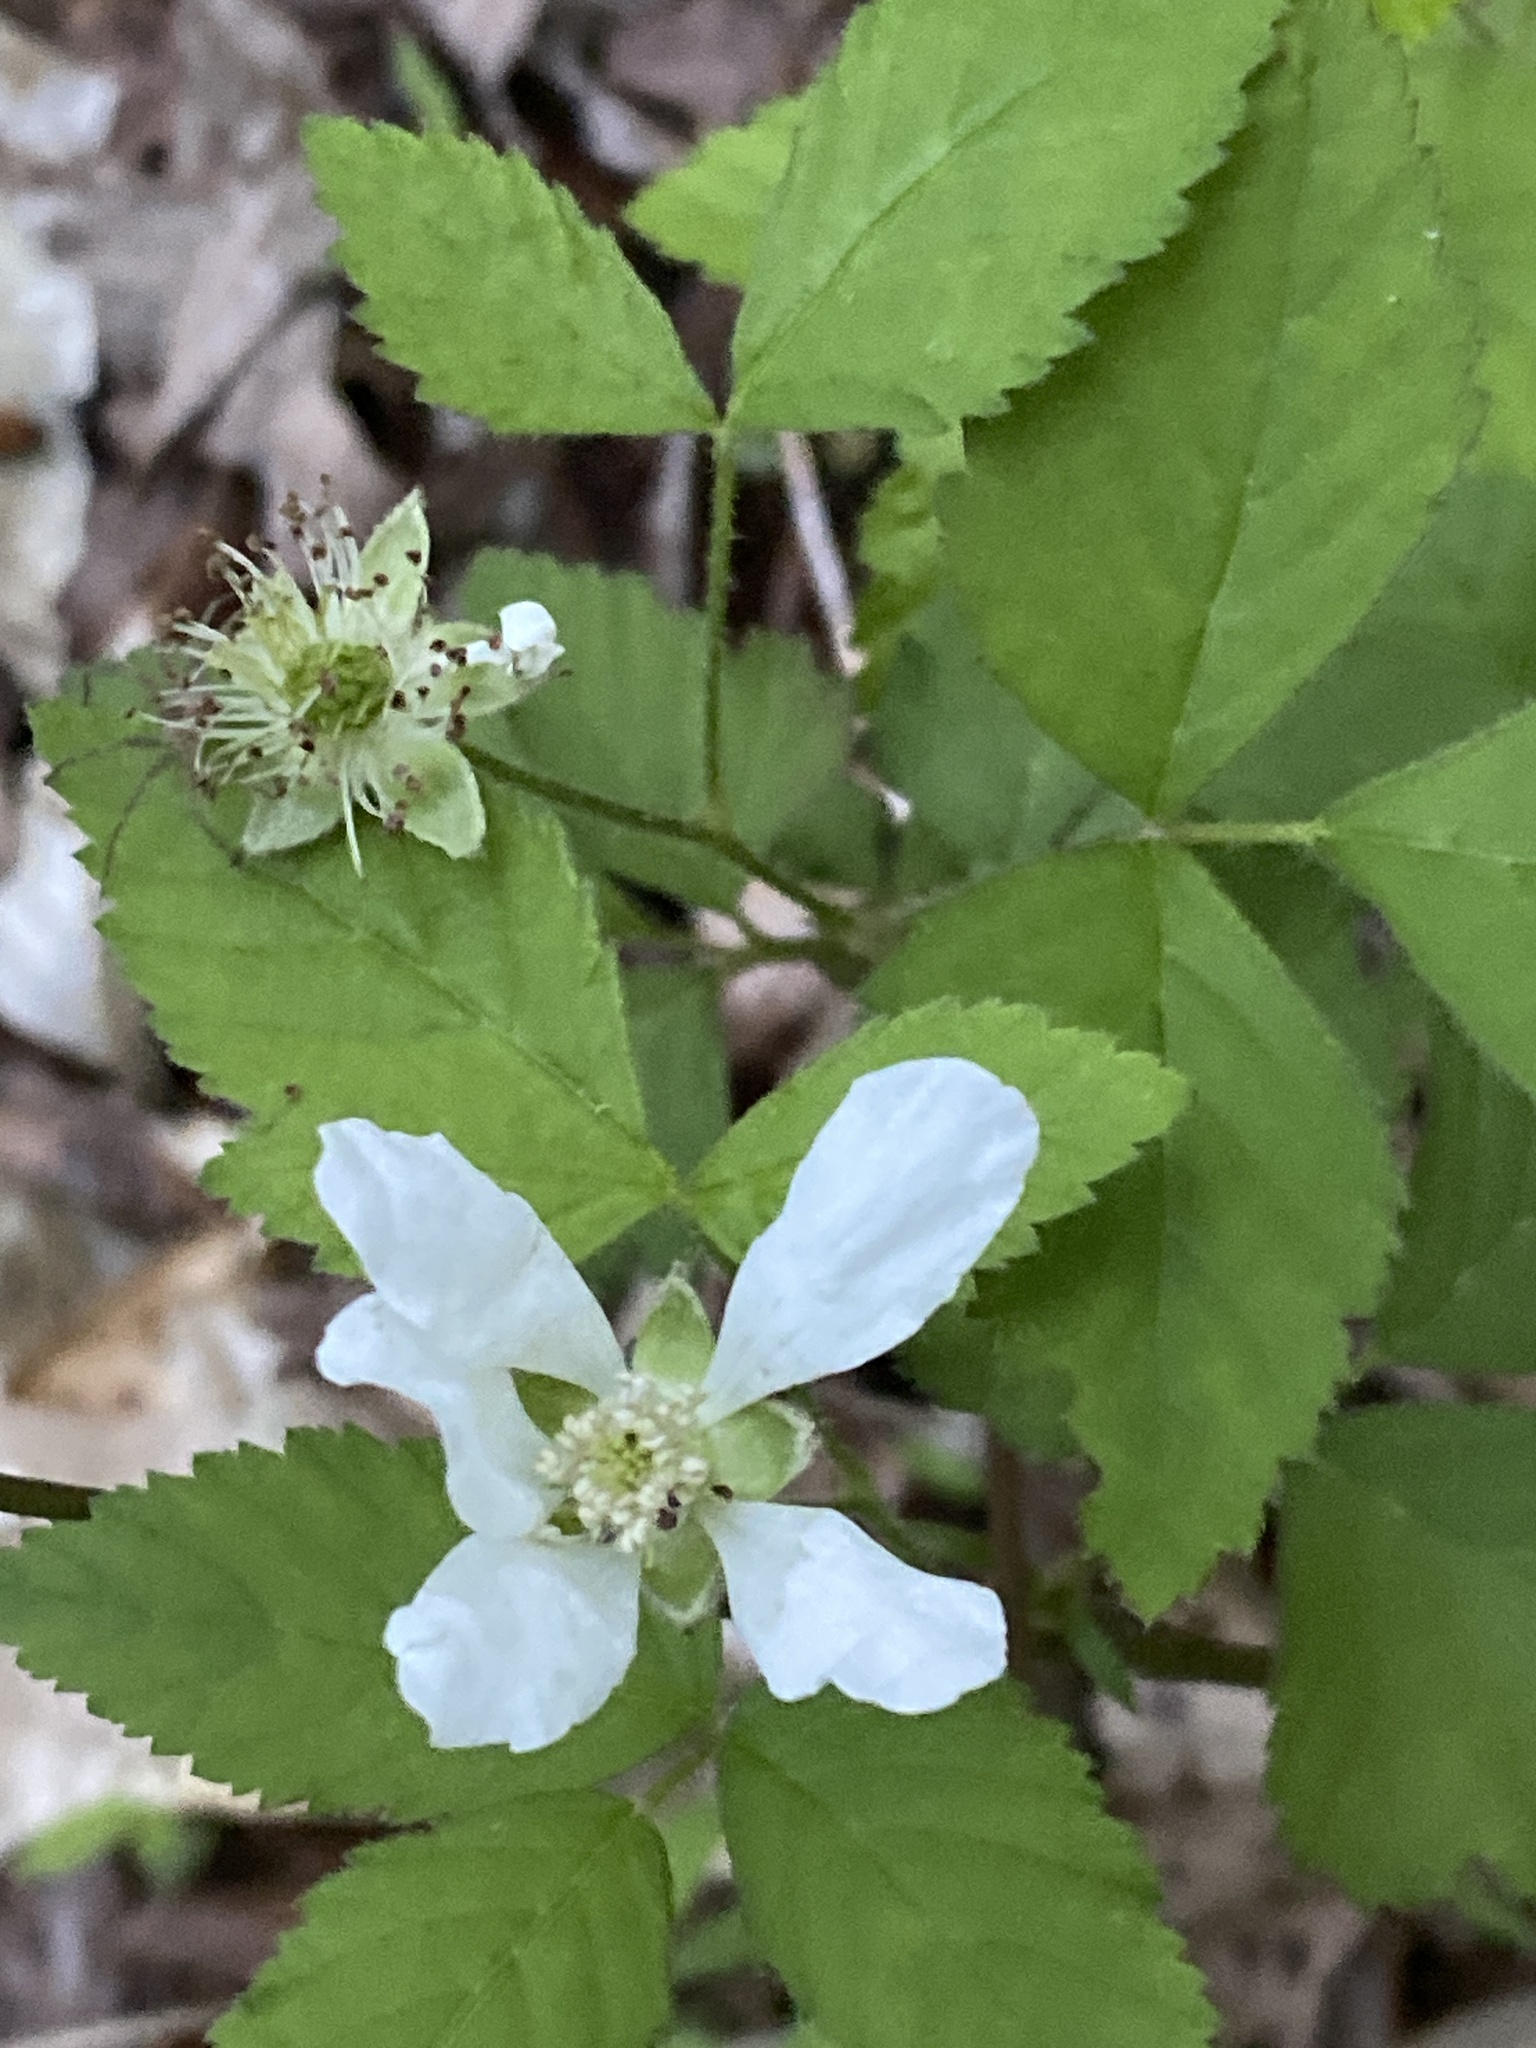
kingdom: Plantae
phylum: Tracheophyta
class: Magnoliopsida
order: Rosales
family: Rosaceae
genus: Rubus
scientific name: Rubus flagellaris
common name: American dewberry
